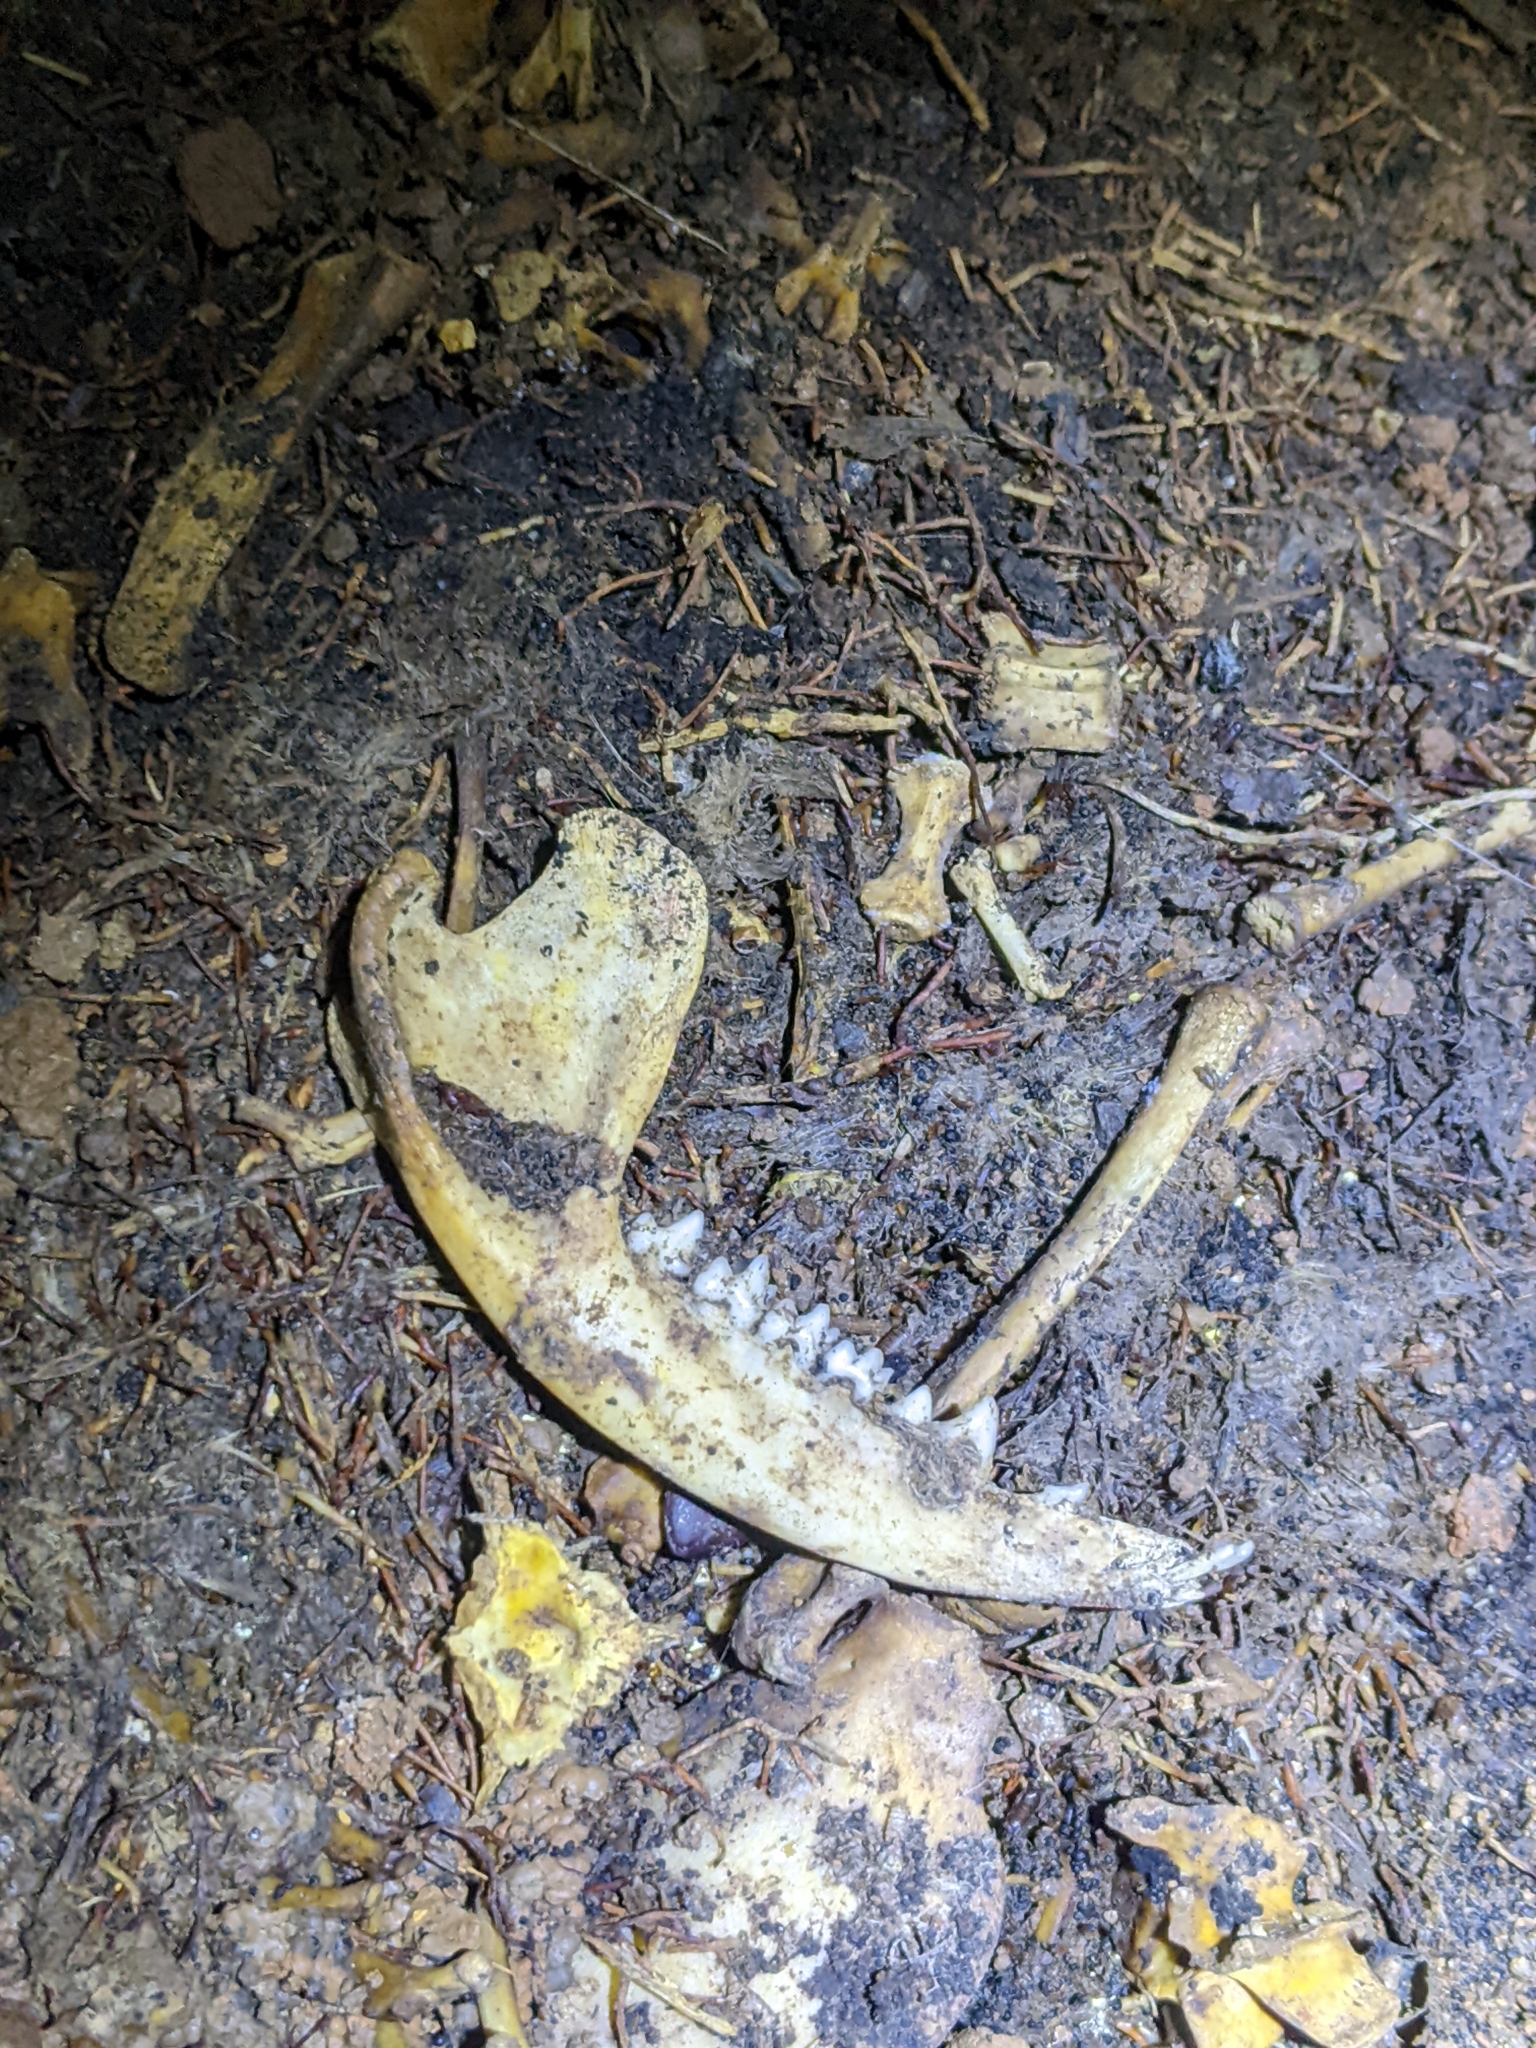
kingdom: Animalia
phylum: Chordata
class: Mammalia
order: Didelphimorphia
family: Didelphidae
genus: Didelphis
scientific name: Didelphis virginiana
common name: Virginia opossum
